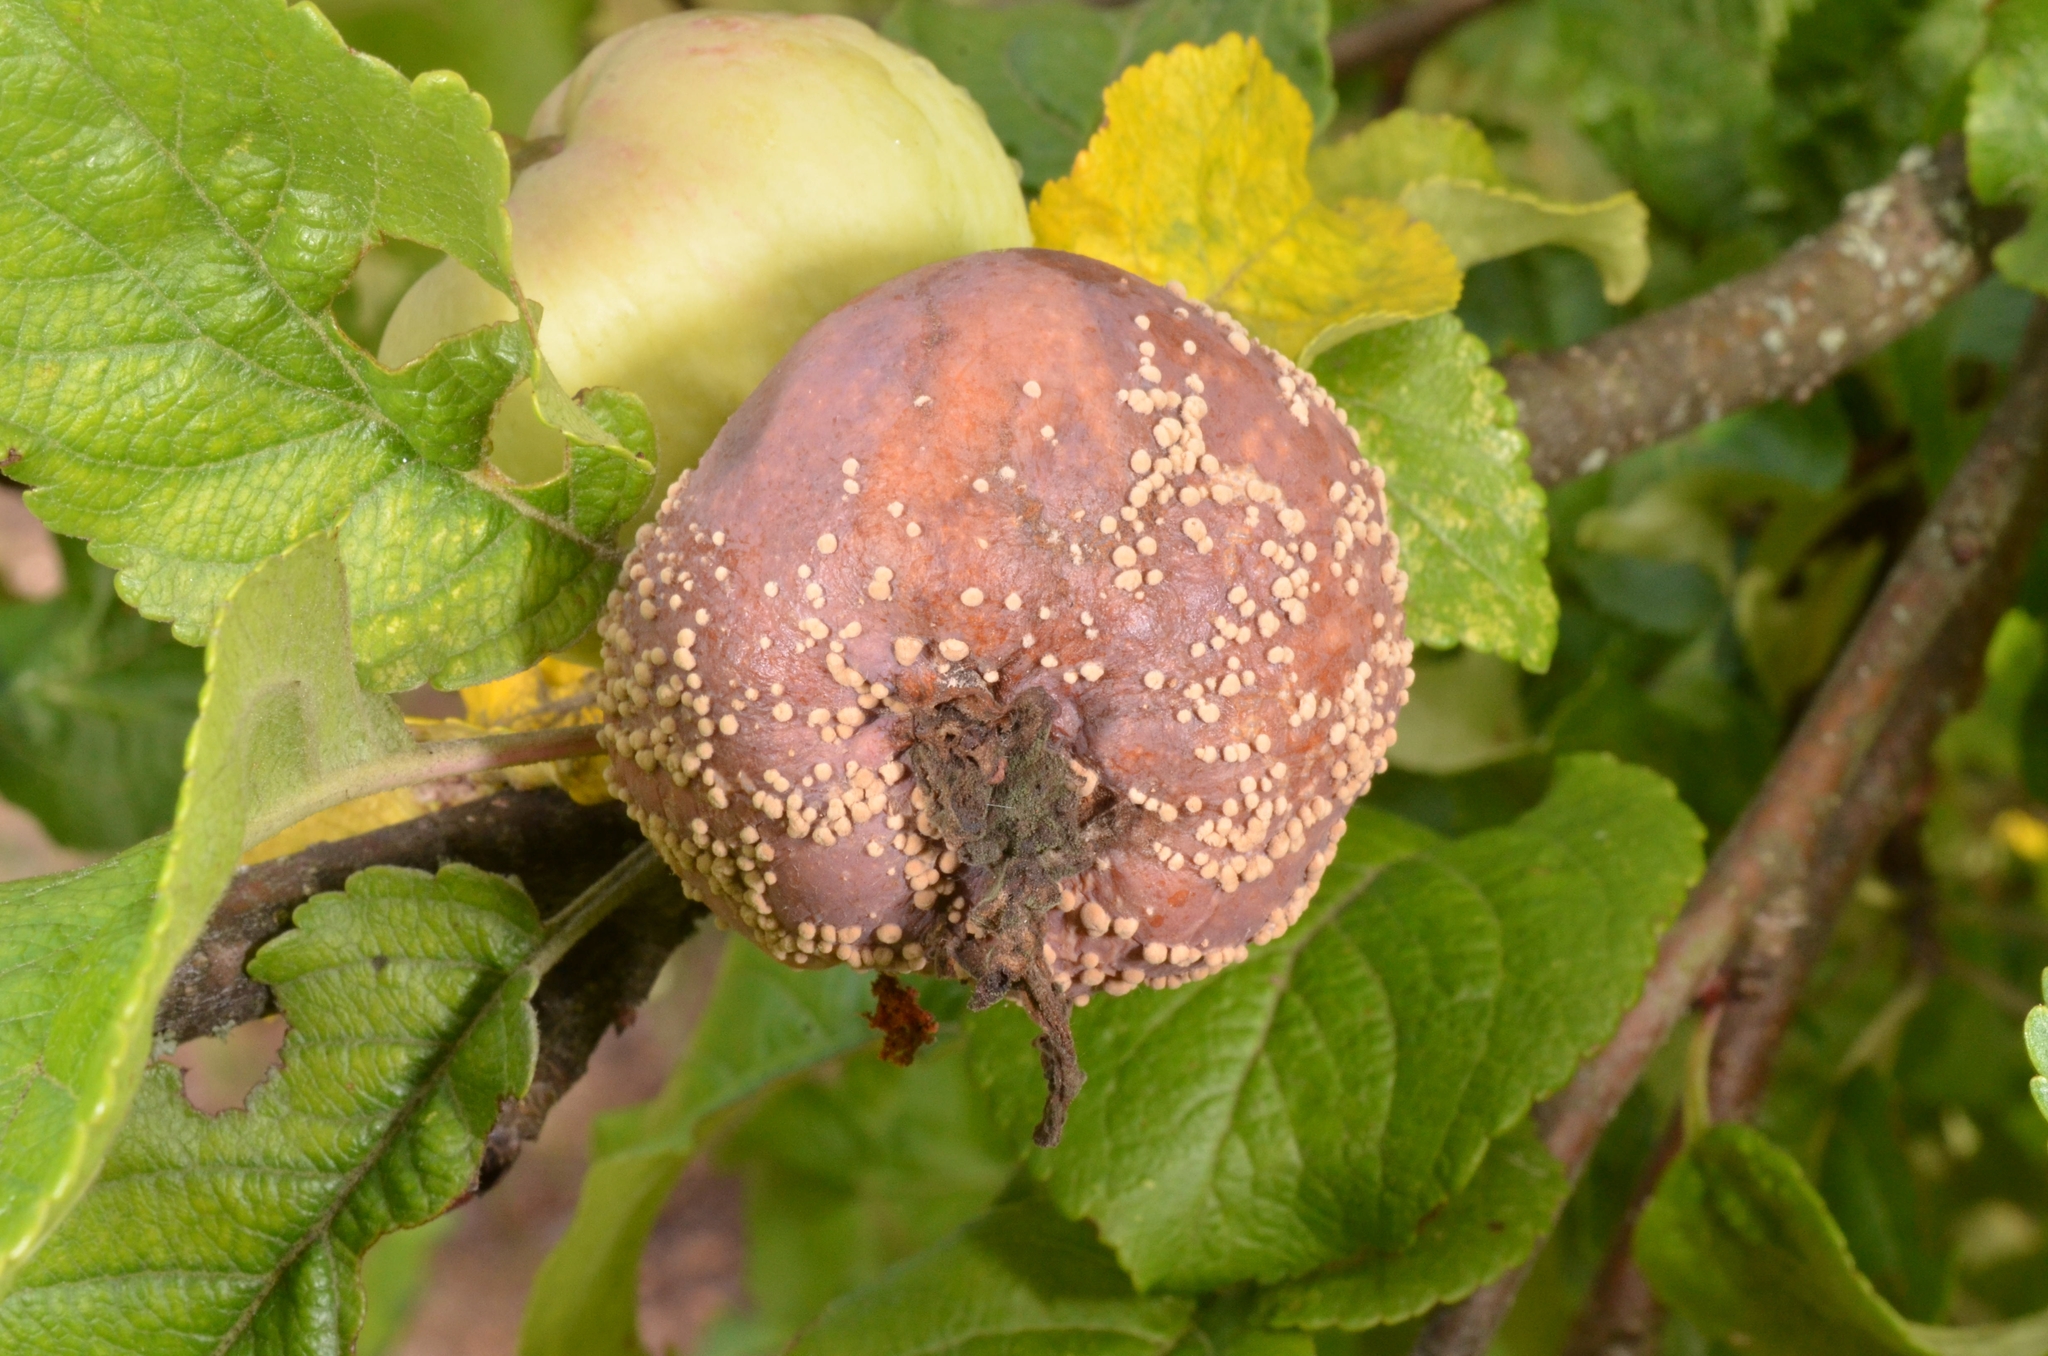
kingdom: Fungi
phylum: Ascomycota
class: Leotiomycetes
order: Helotiales
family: Sclerotiniaceae
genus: Monilinia
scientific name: Monilinia fructigena
